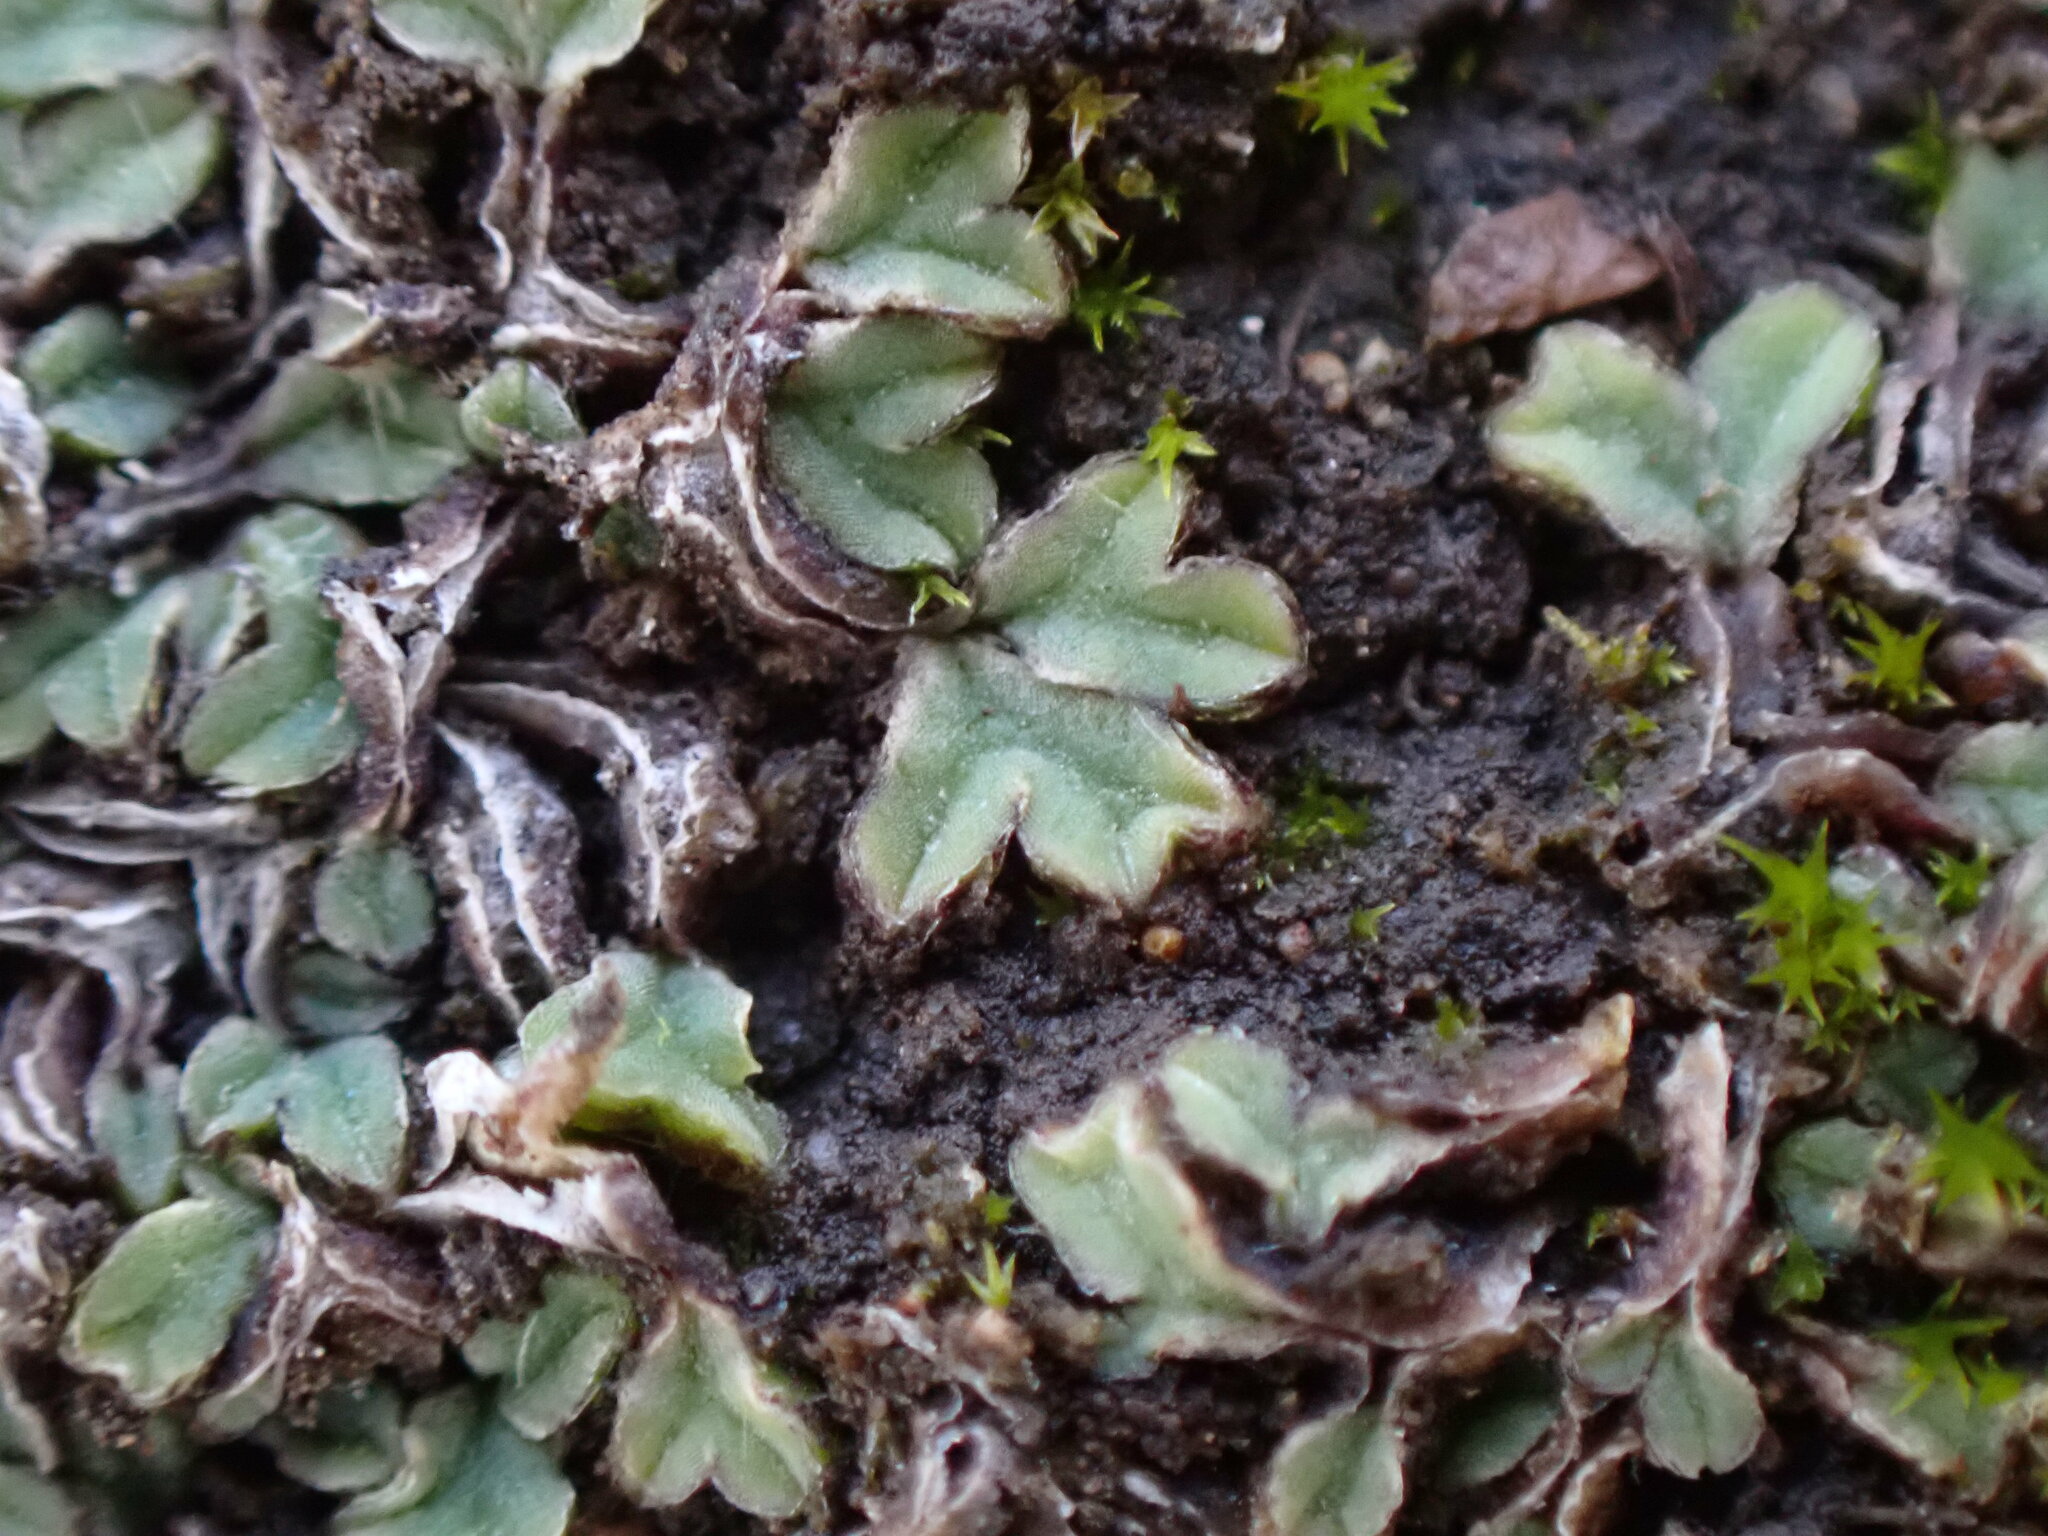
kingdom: Plantae
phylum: Marchantiophyta
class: Marchantiopsida
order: Marchantiales
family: Ricciaceae
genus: Riccia
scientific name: Riccia sorocarpa
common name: Common crystalwort
